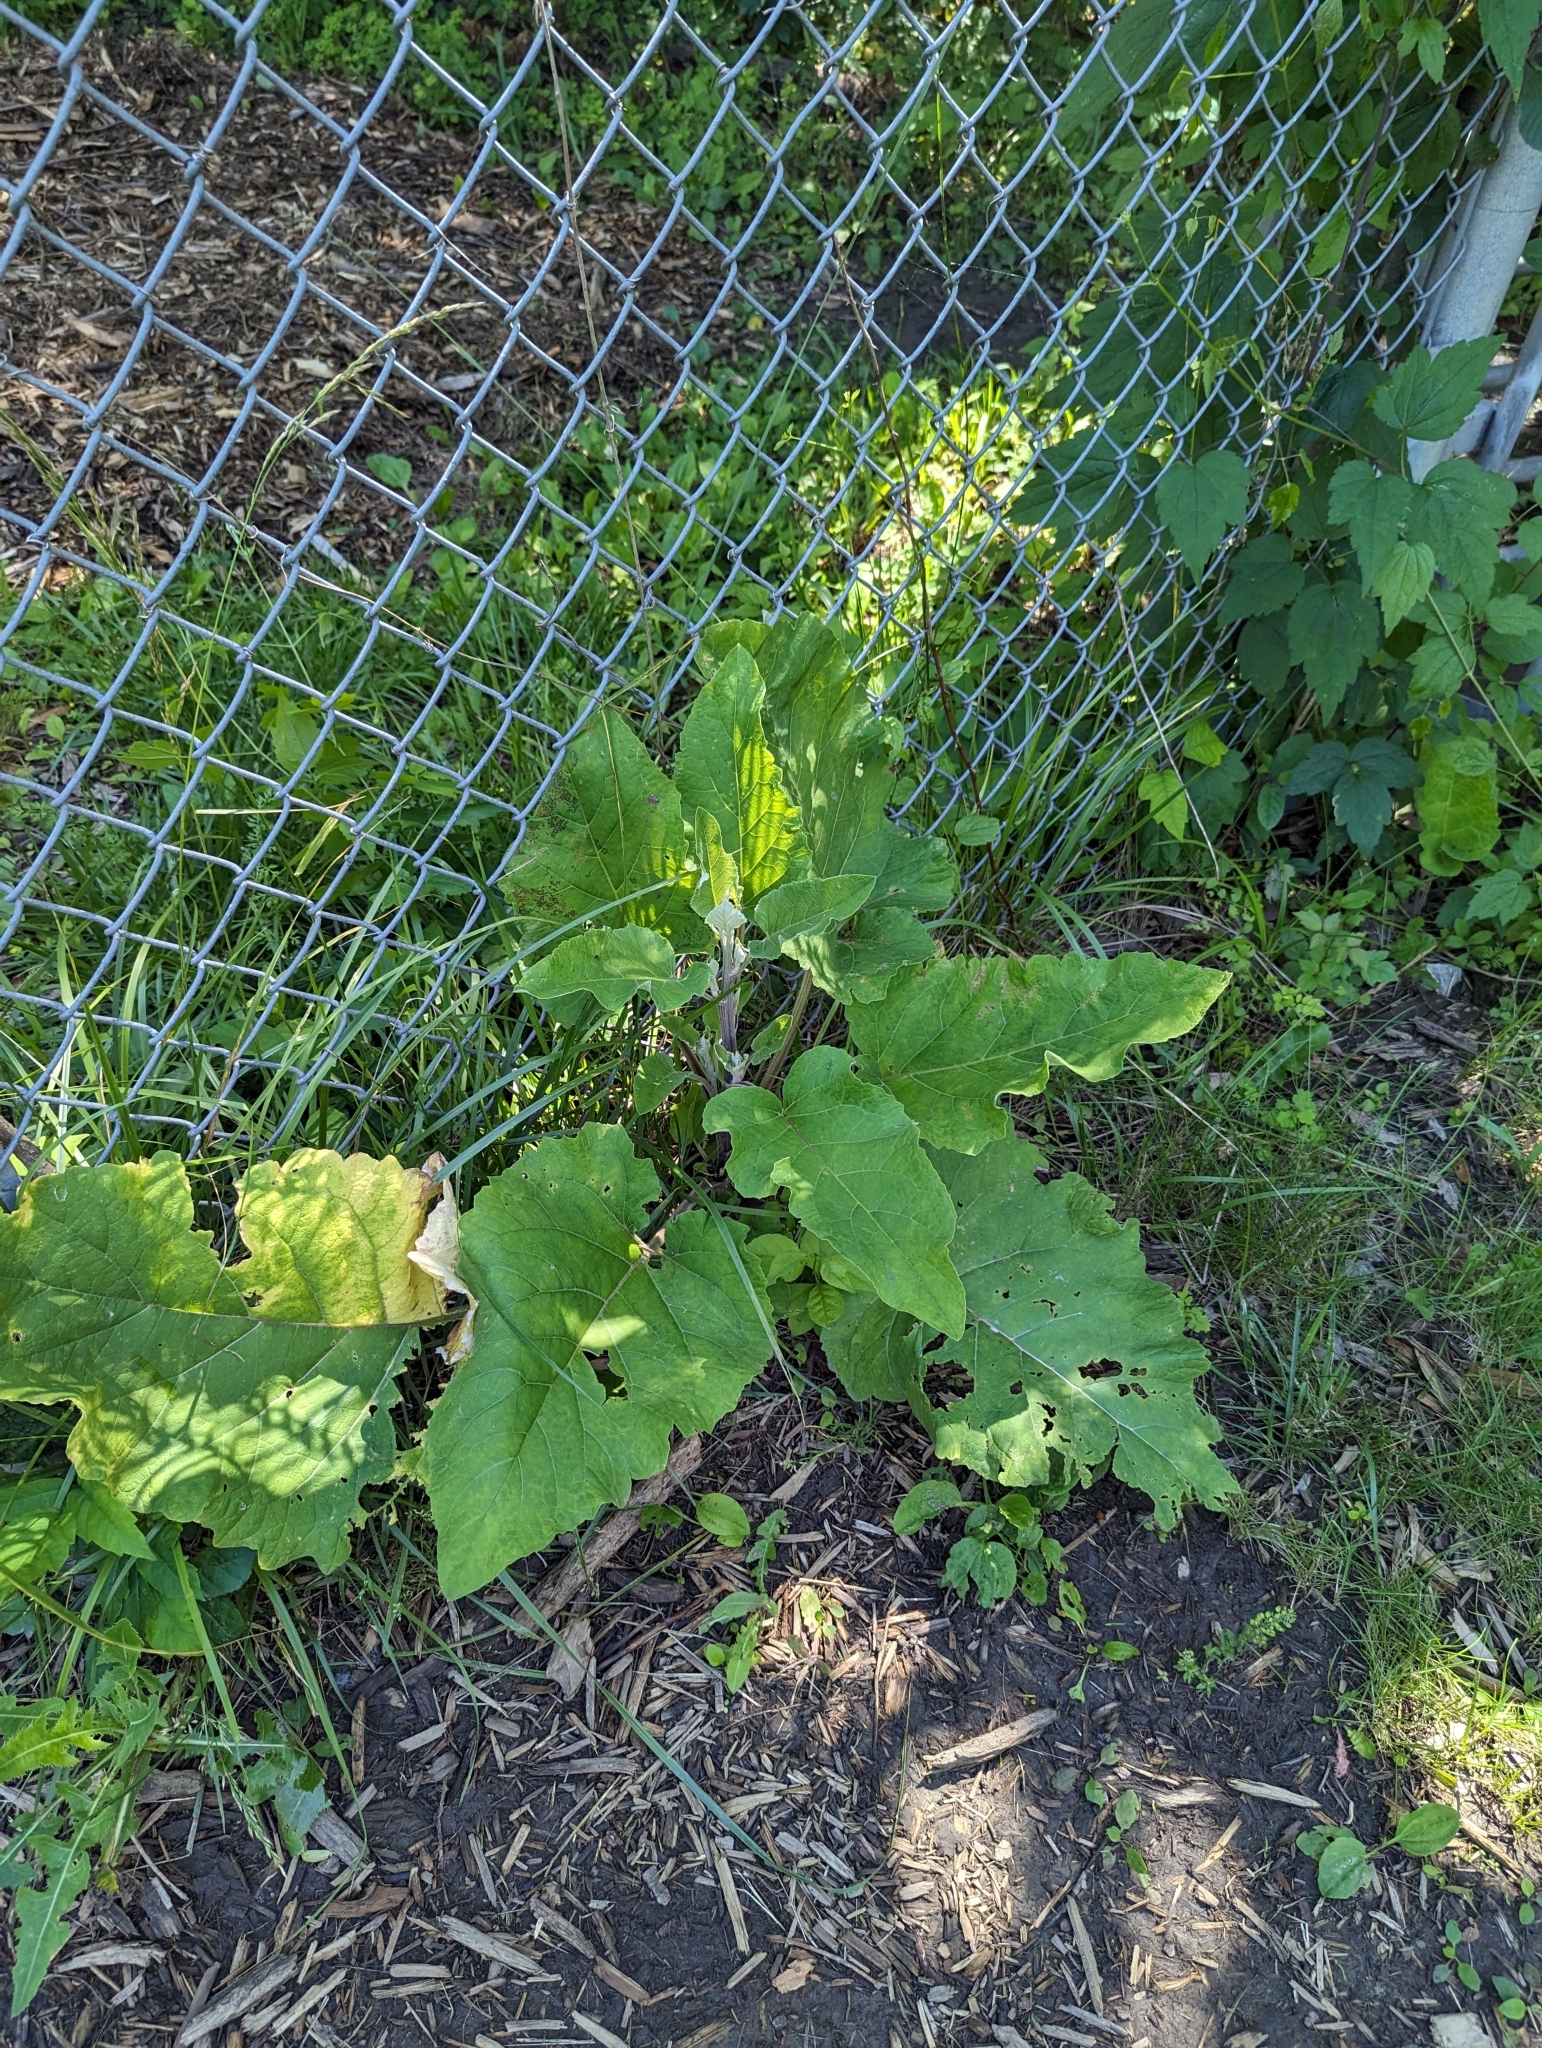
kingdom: Plantae
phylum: Tracheophyta
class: Magnoliopsida
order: Asterales
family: Asteraceae
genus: Arctium
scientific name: Arctium
